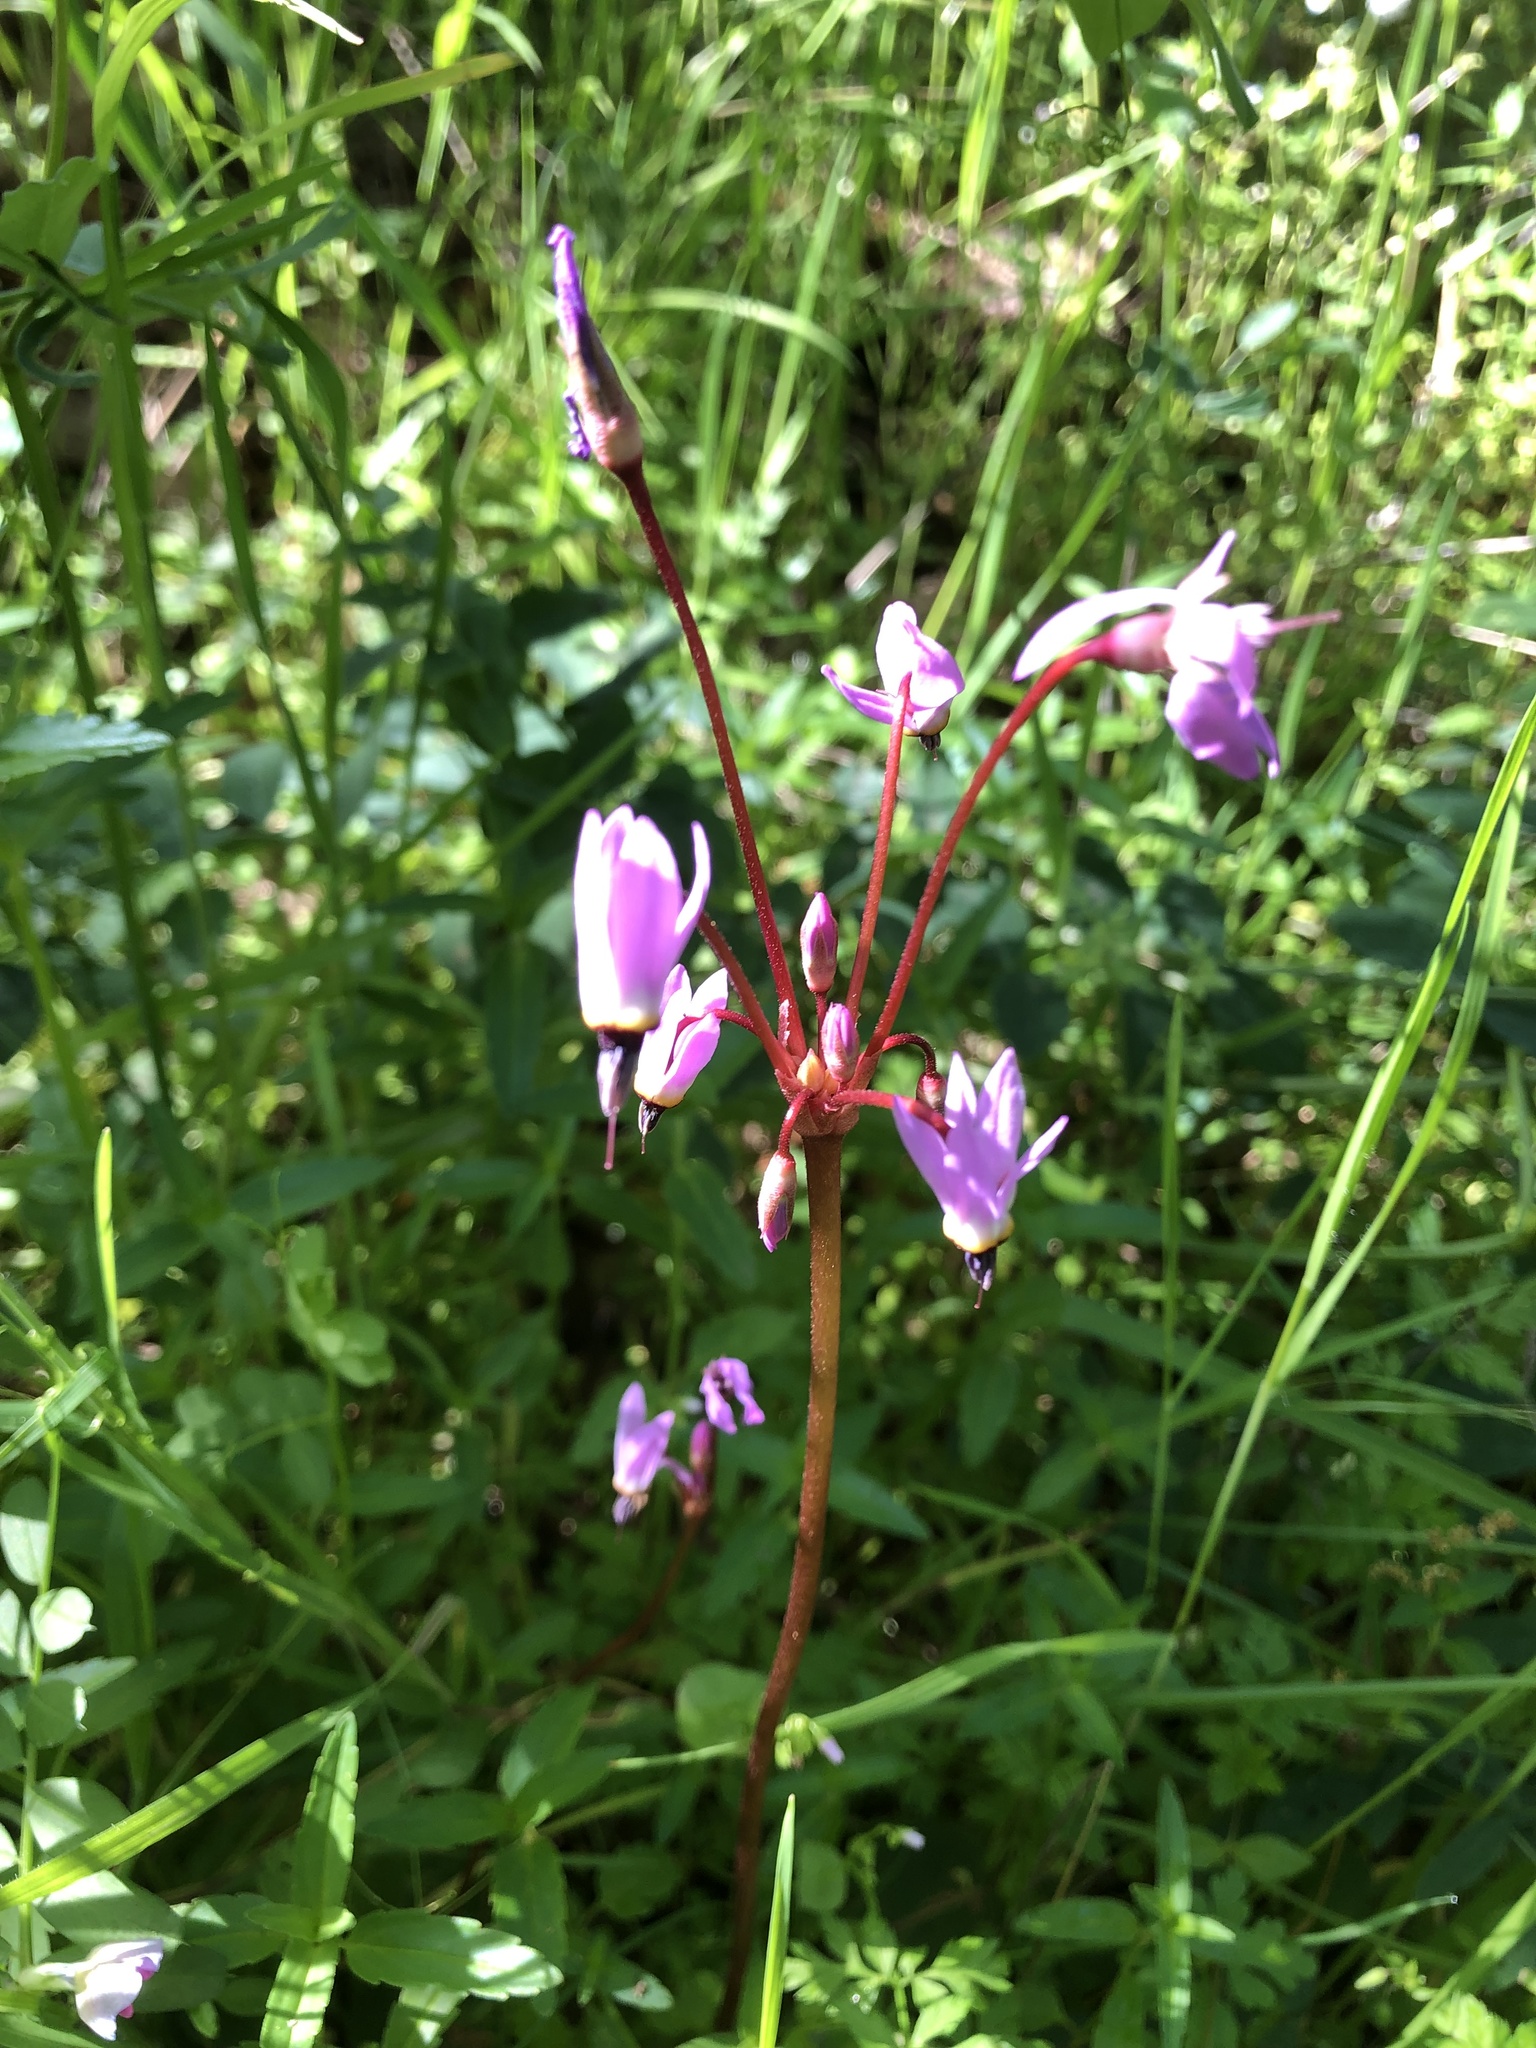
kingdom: Plantae
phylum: Tracheophyta
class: Magnoliopsida
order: Ericales
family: Primulaceae
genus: Dodecatheon
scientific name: Dodecatheon hendersonii
